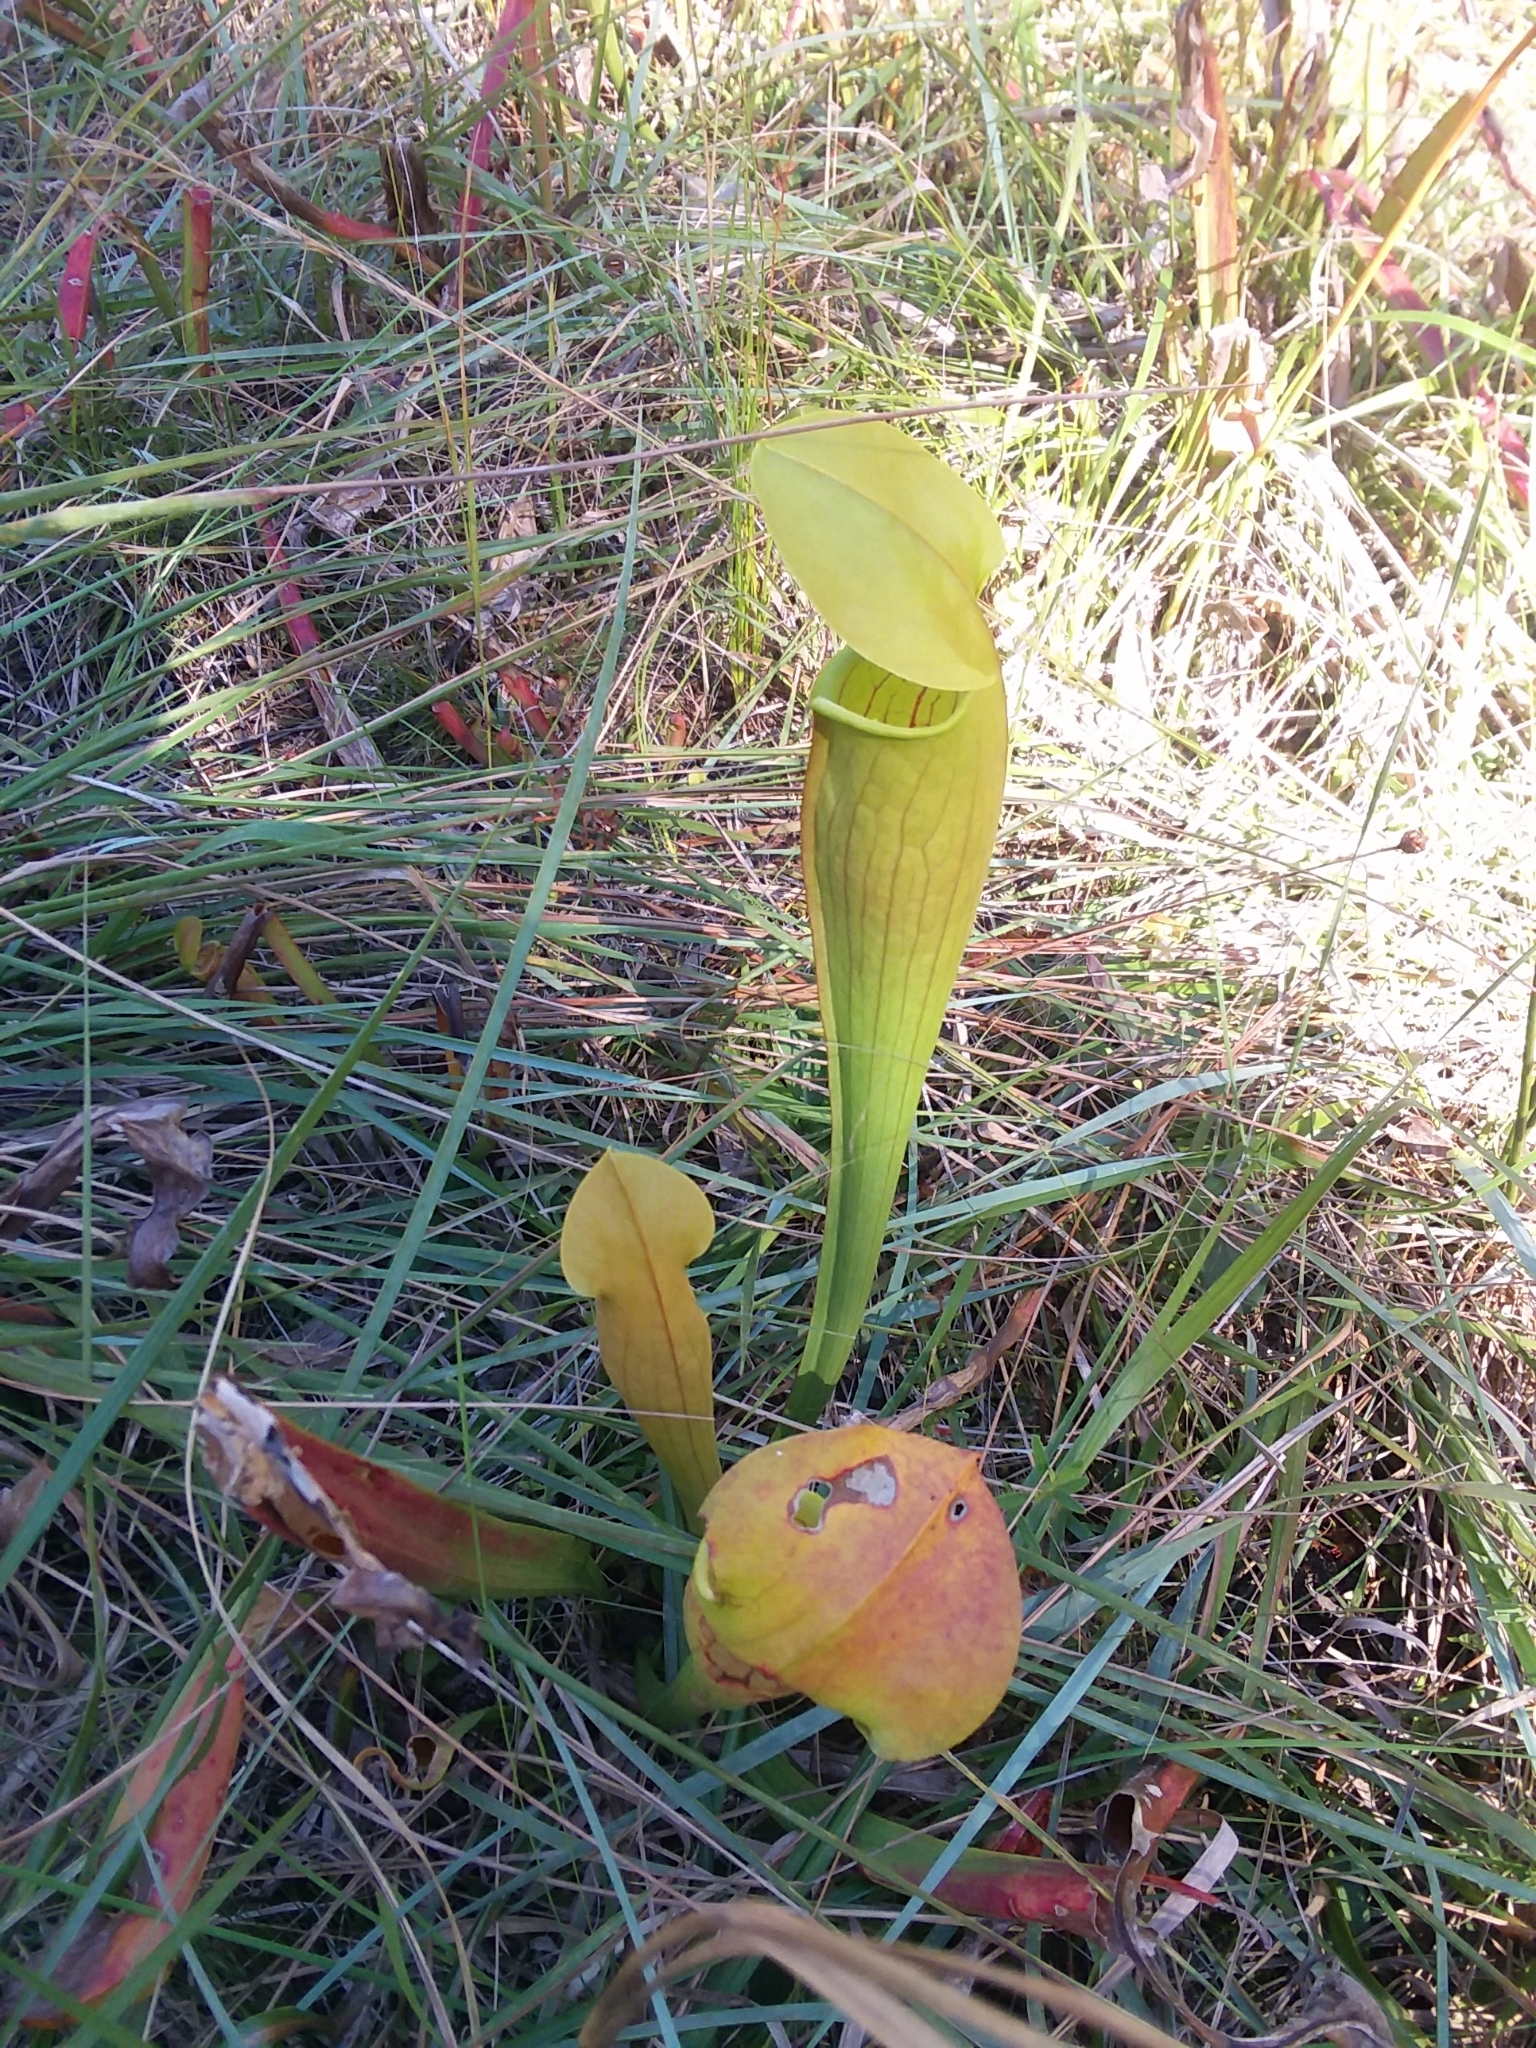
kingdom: Plantae
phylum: Tracheophyta
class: Magnoliopsida
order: Ericales
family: Sarraceniaceae
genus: Sarracenia
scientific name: Sarracenia alata
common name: Yellow trumpets
